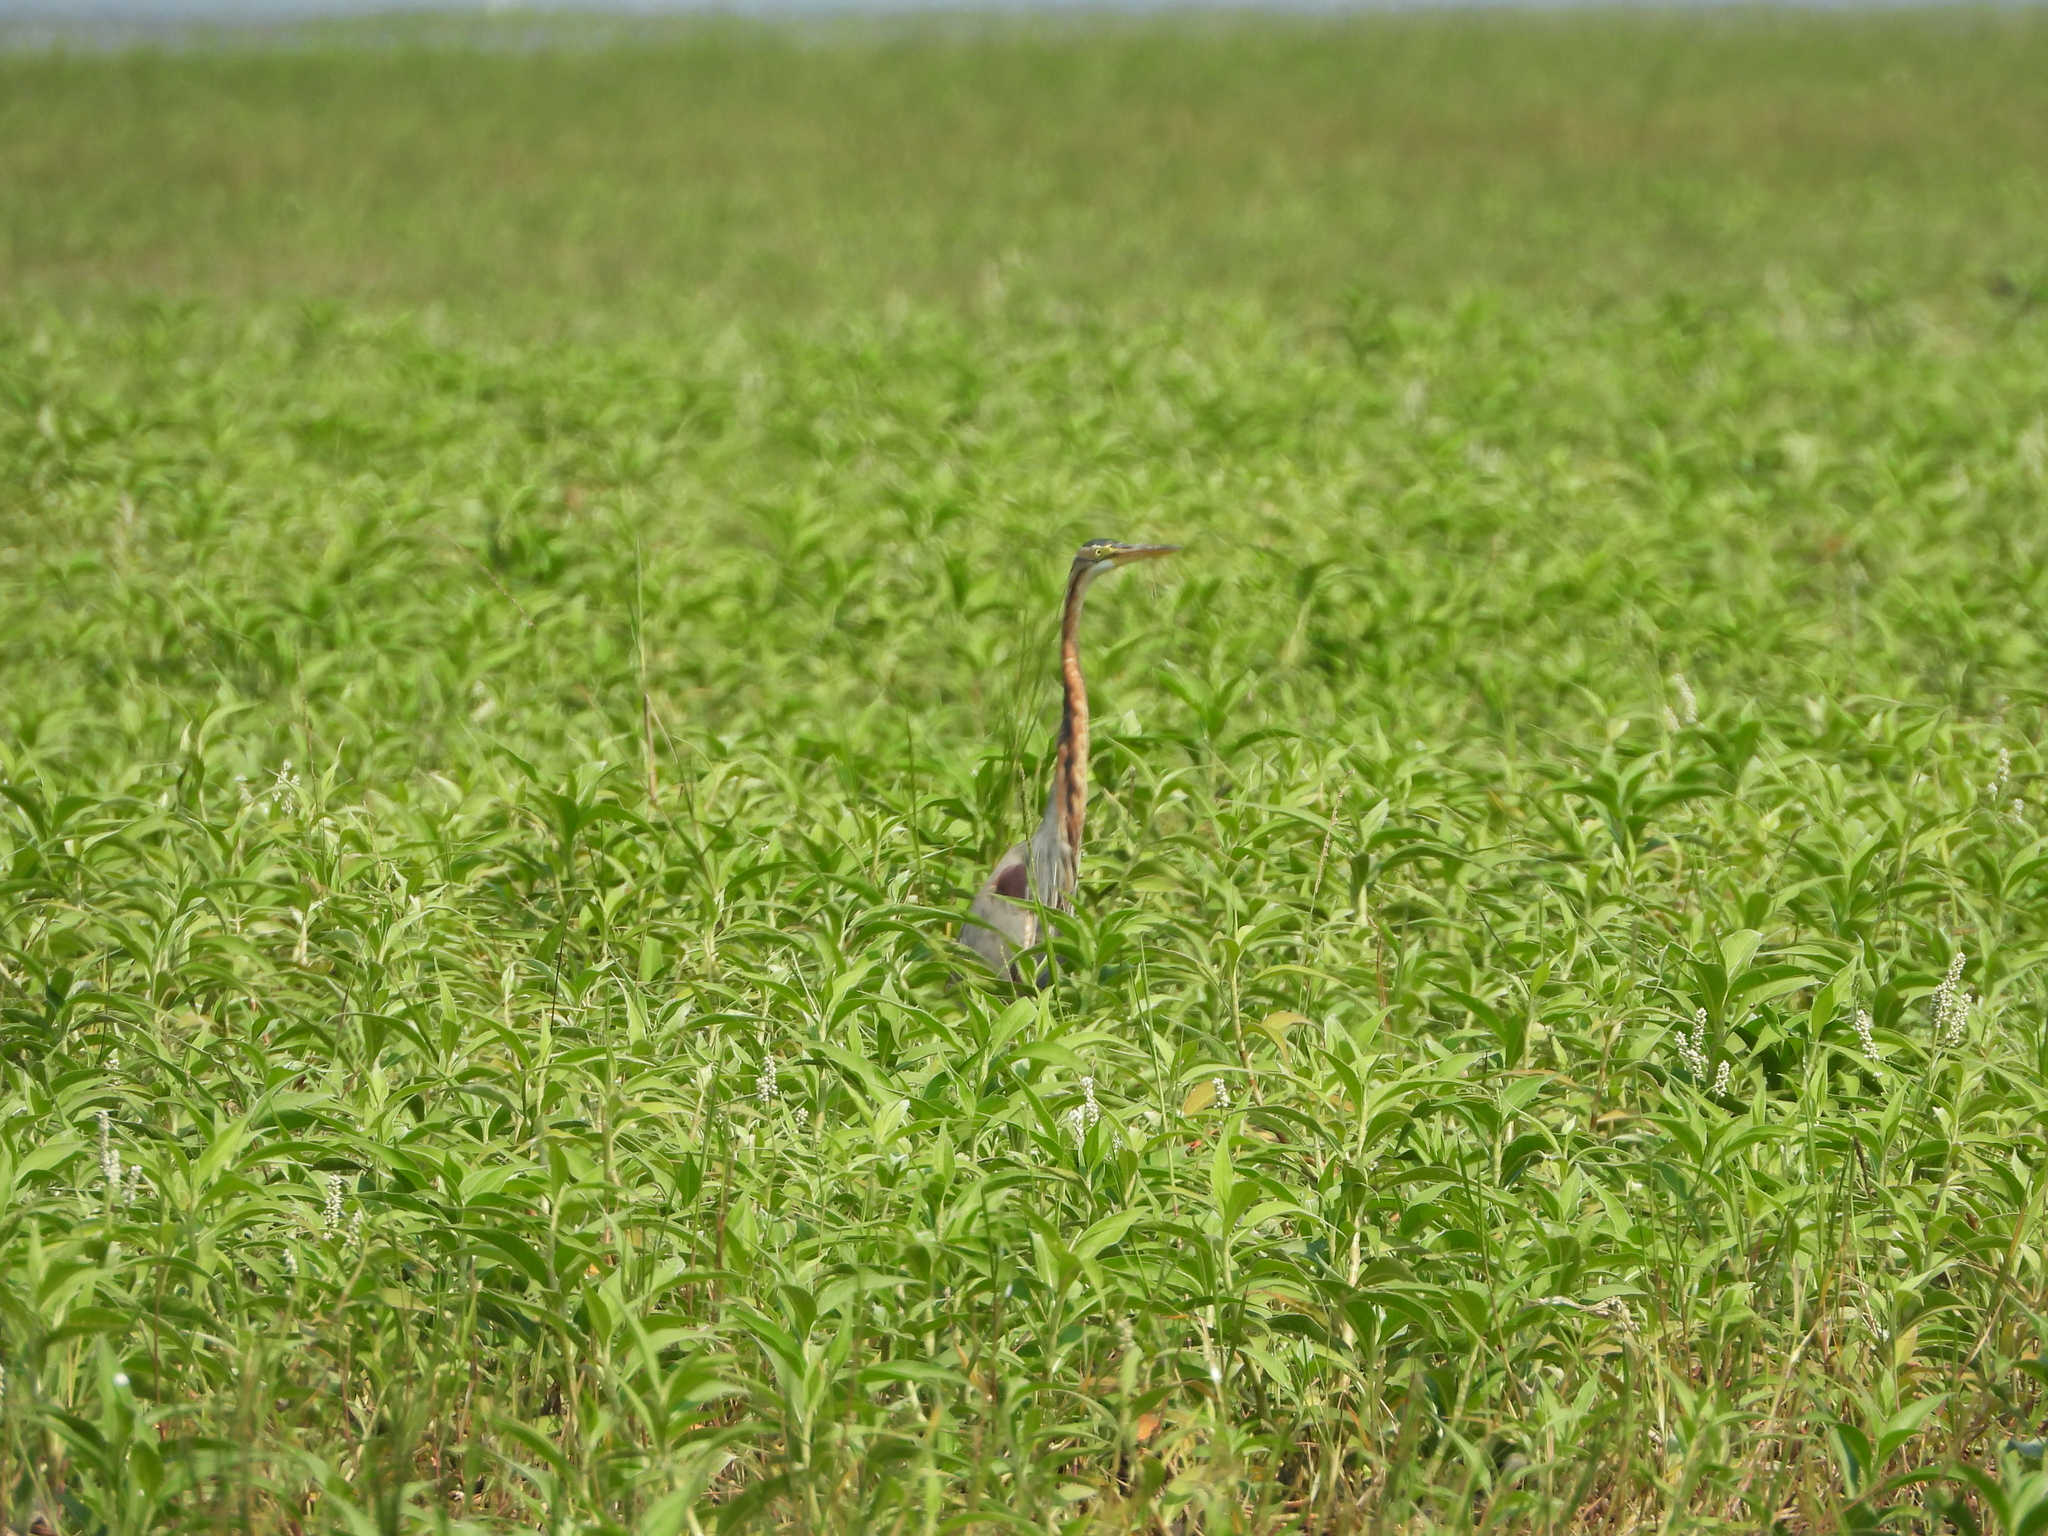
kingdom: Animalia
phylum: Chordata
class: Aves
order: Pelecaniformes
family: Ardeidae
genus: Ardea
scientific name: Ardea purpurea
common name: Purple heron
